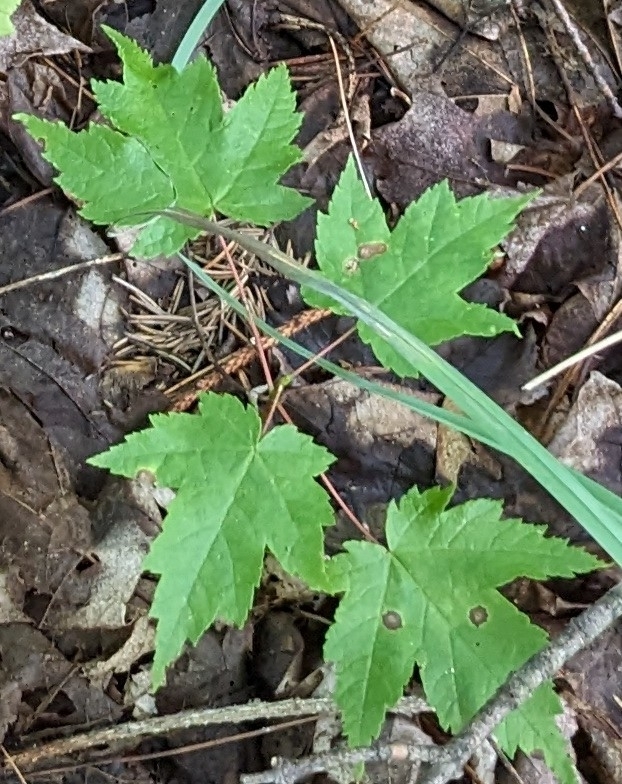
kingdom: Plantae
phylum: Tracheophyta
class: Magnoliopsida
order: Sapindales
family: Sapindaceae
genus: Acer
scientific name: Acer rubrum
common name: Red maple
